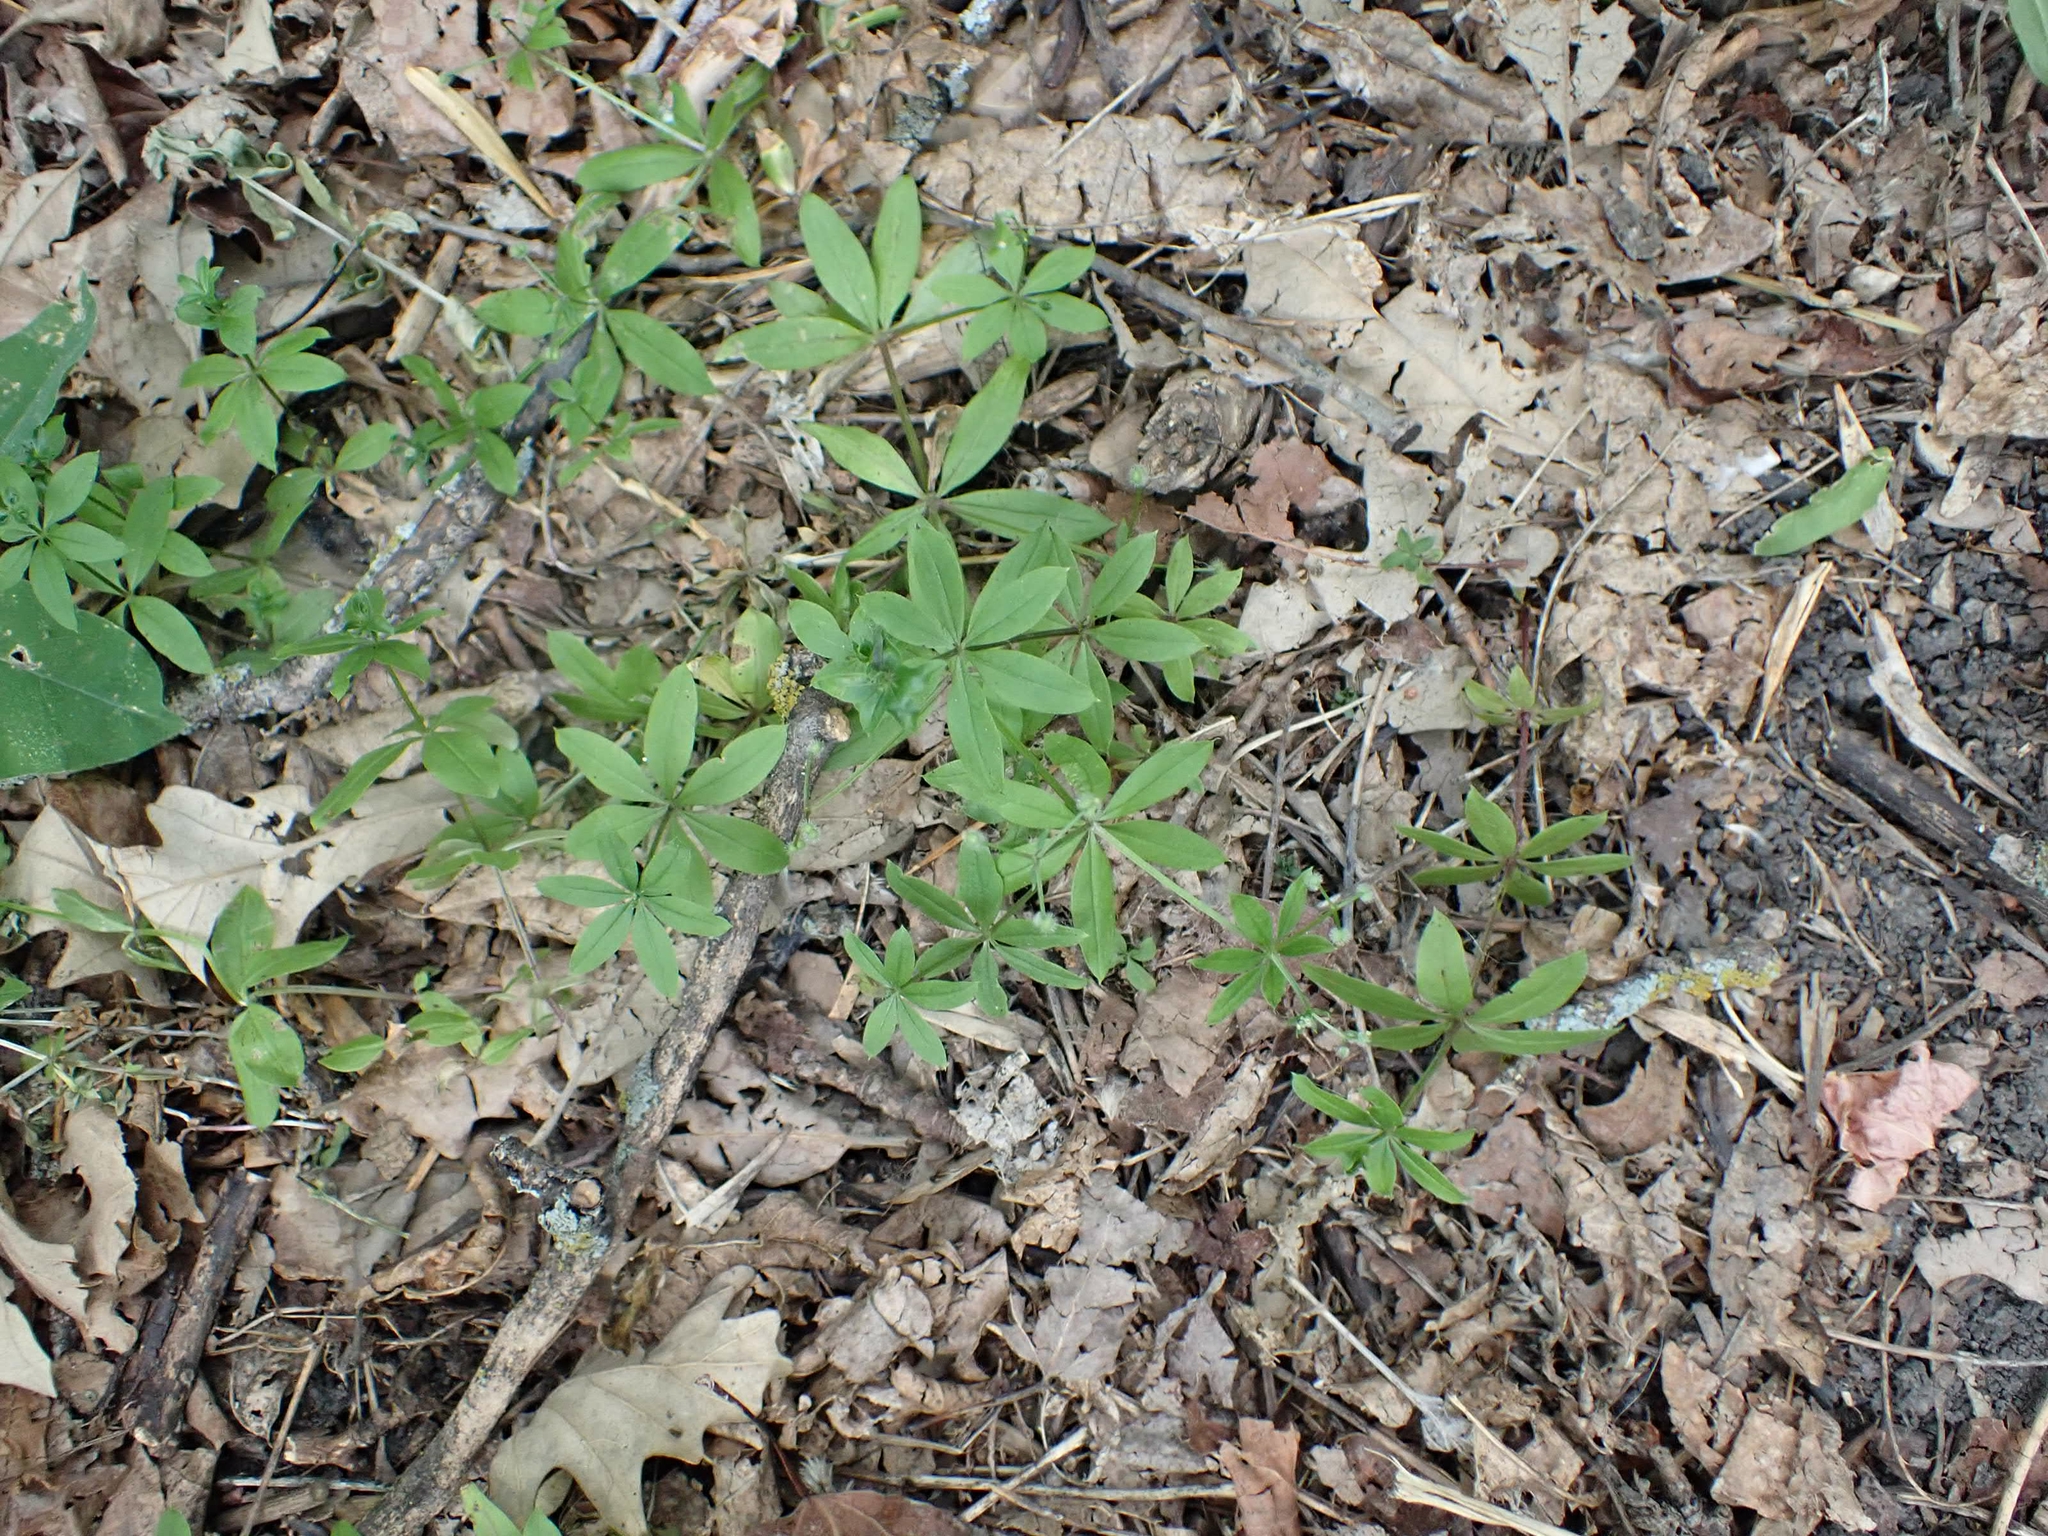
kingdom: Plantae
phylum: Tracheophyta
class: Magnoliopsida
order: Gentianales
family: Rubiaceae
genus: Galium
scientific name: Galium triflorum
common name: Fragrant bedstraw
